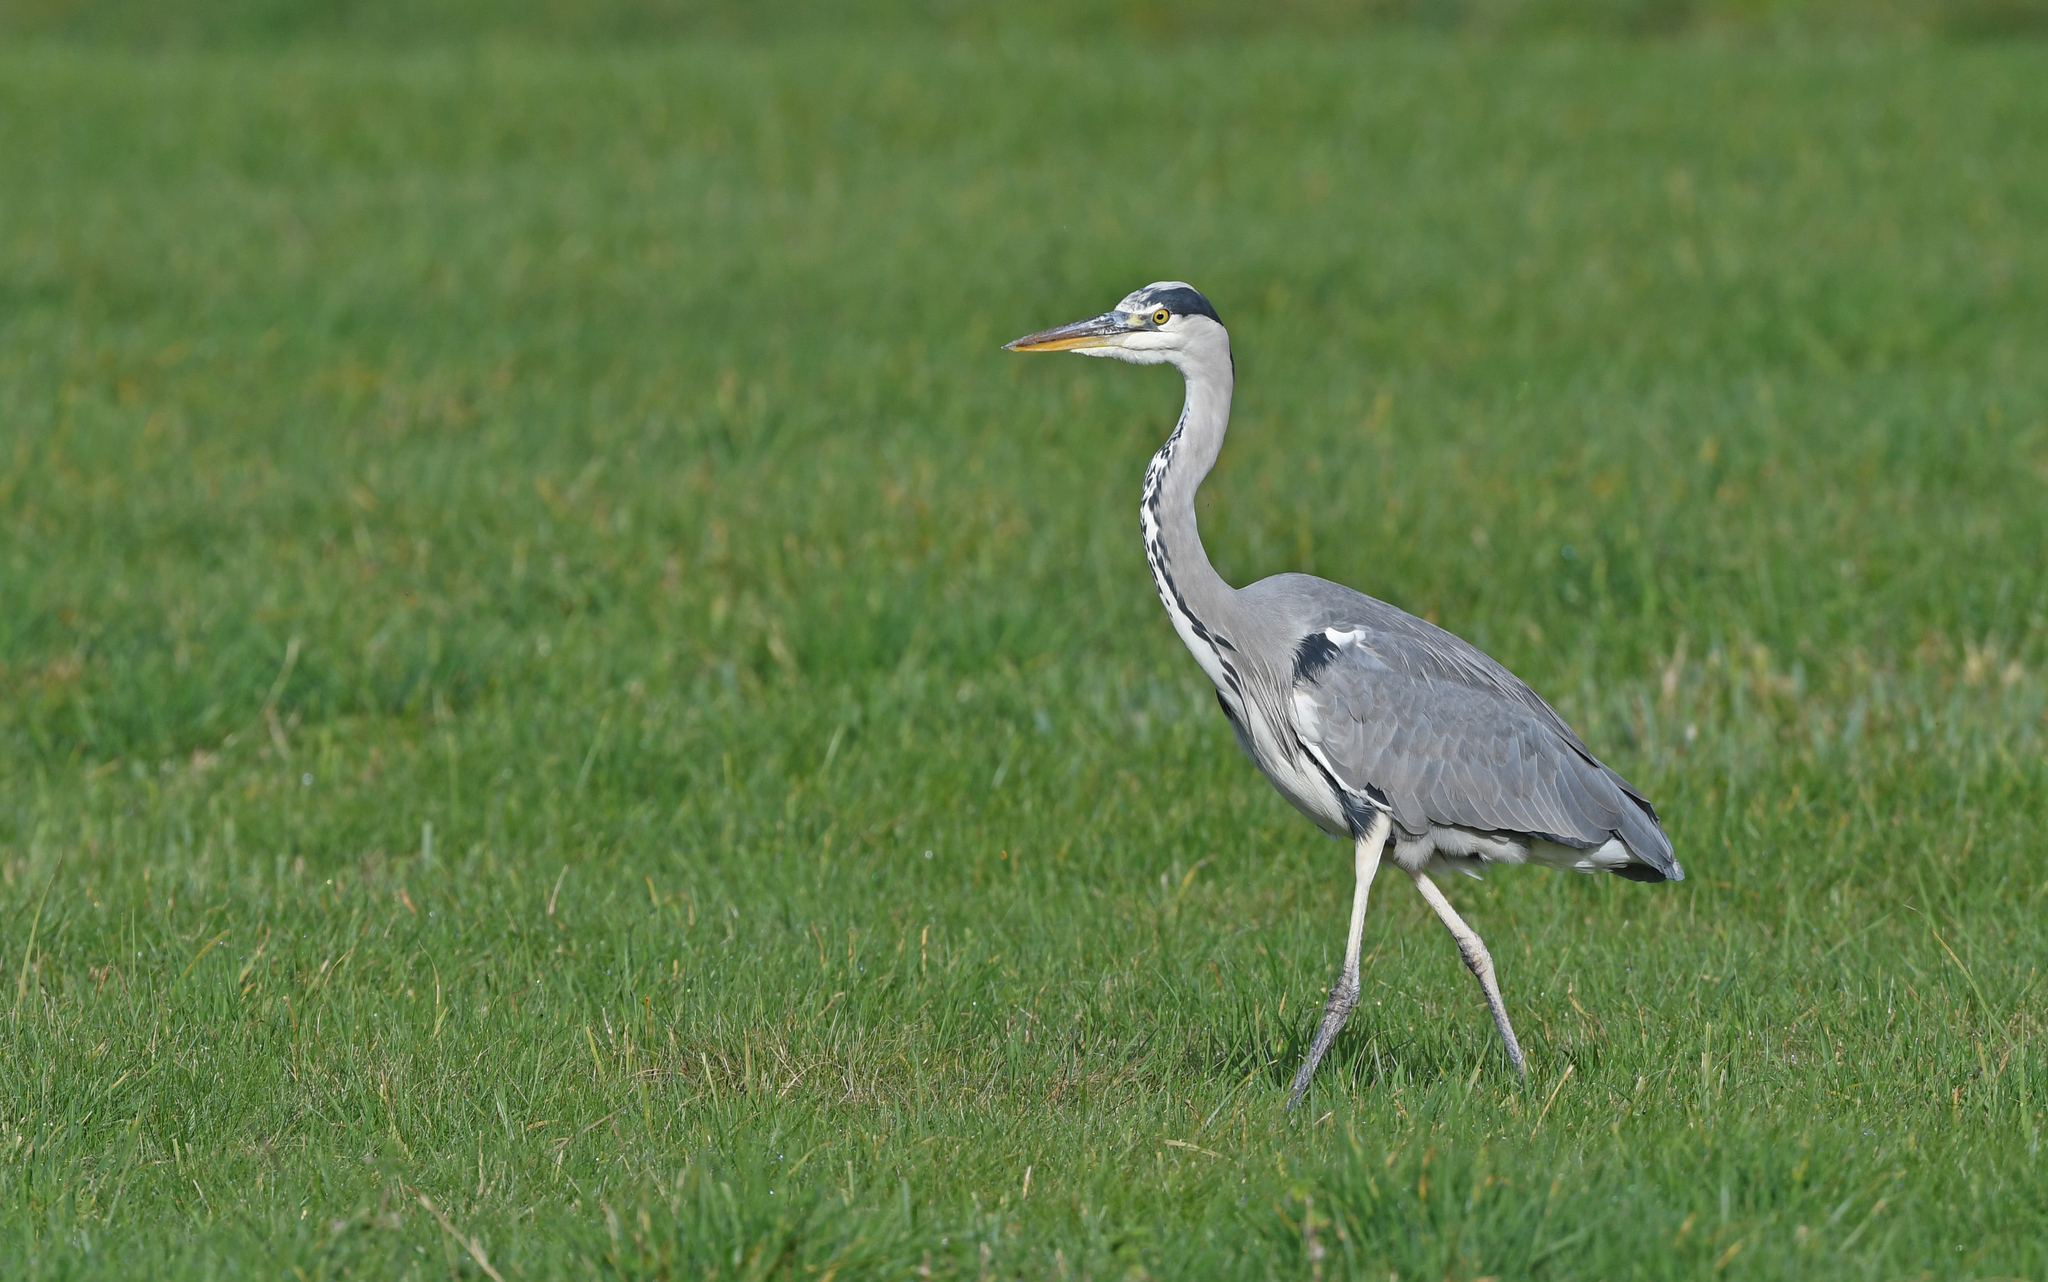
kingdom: Animalia
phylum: Chordata
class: Aves
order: Pelecaniformes
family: Ardeidae
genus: Ardea
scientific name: Ardea cinerea
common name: Grey heron
